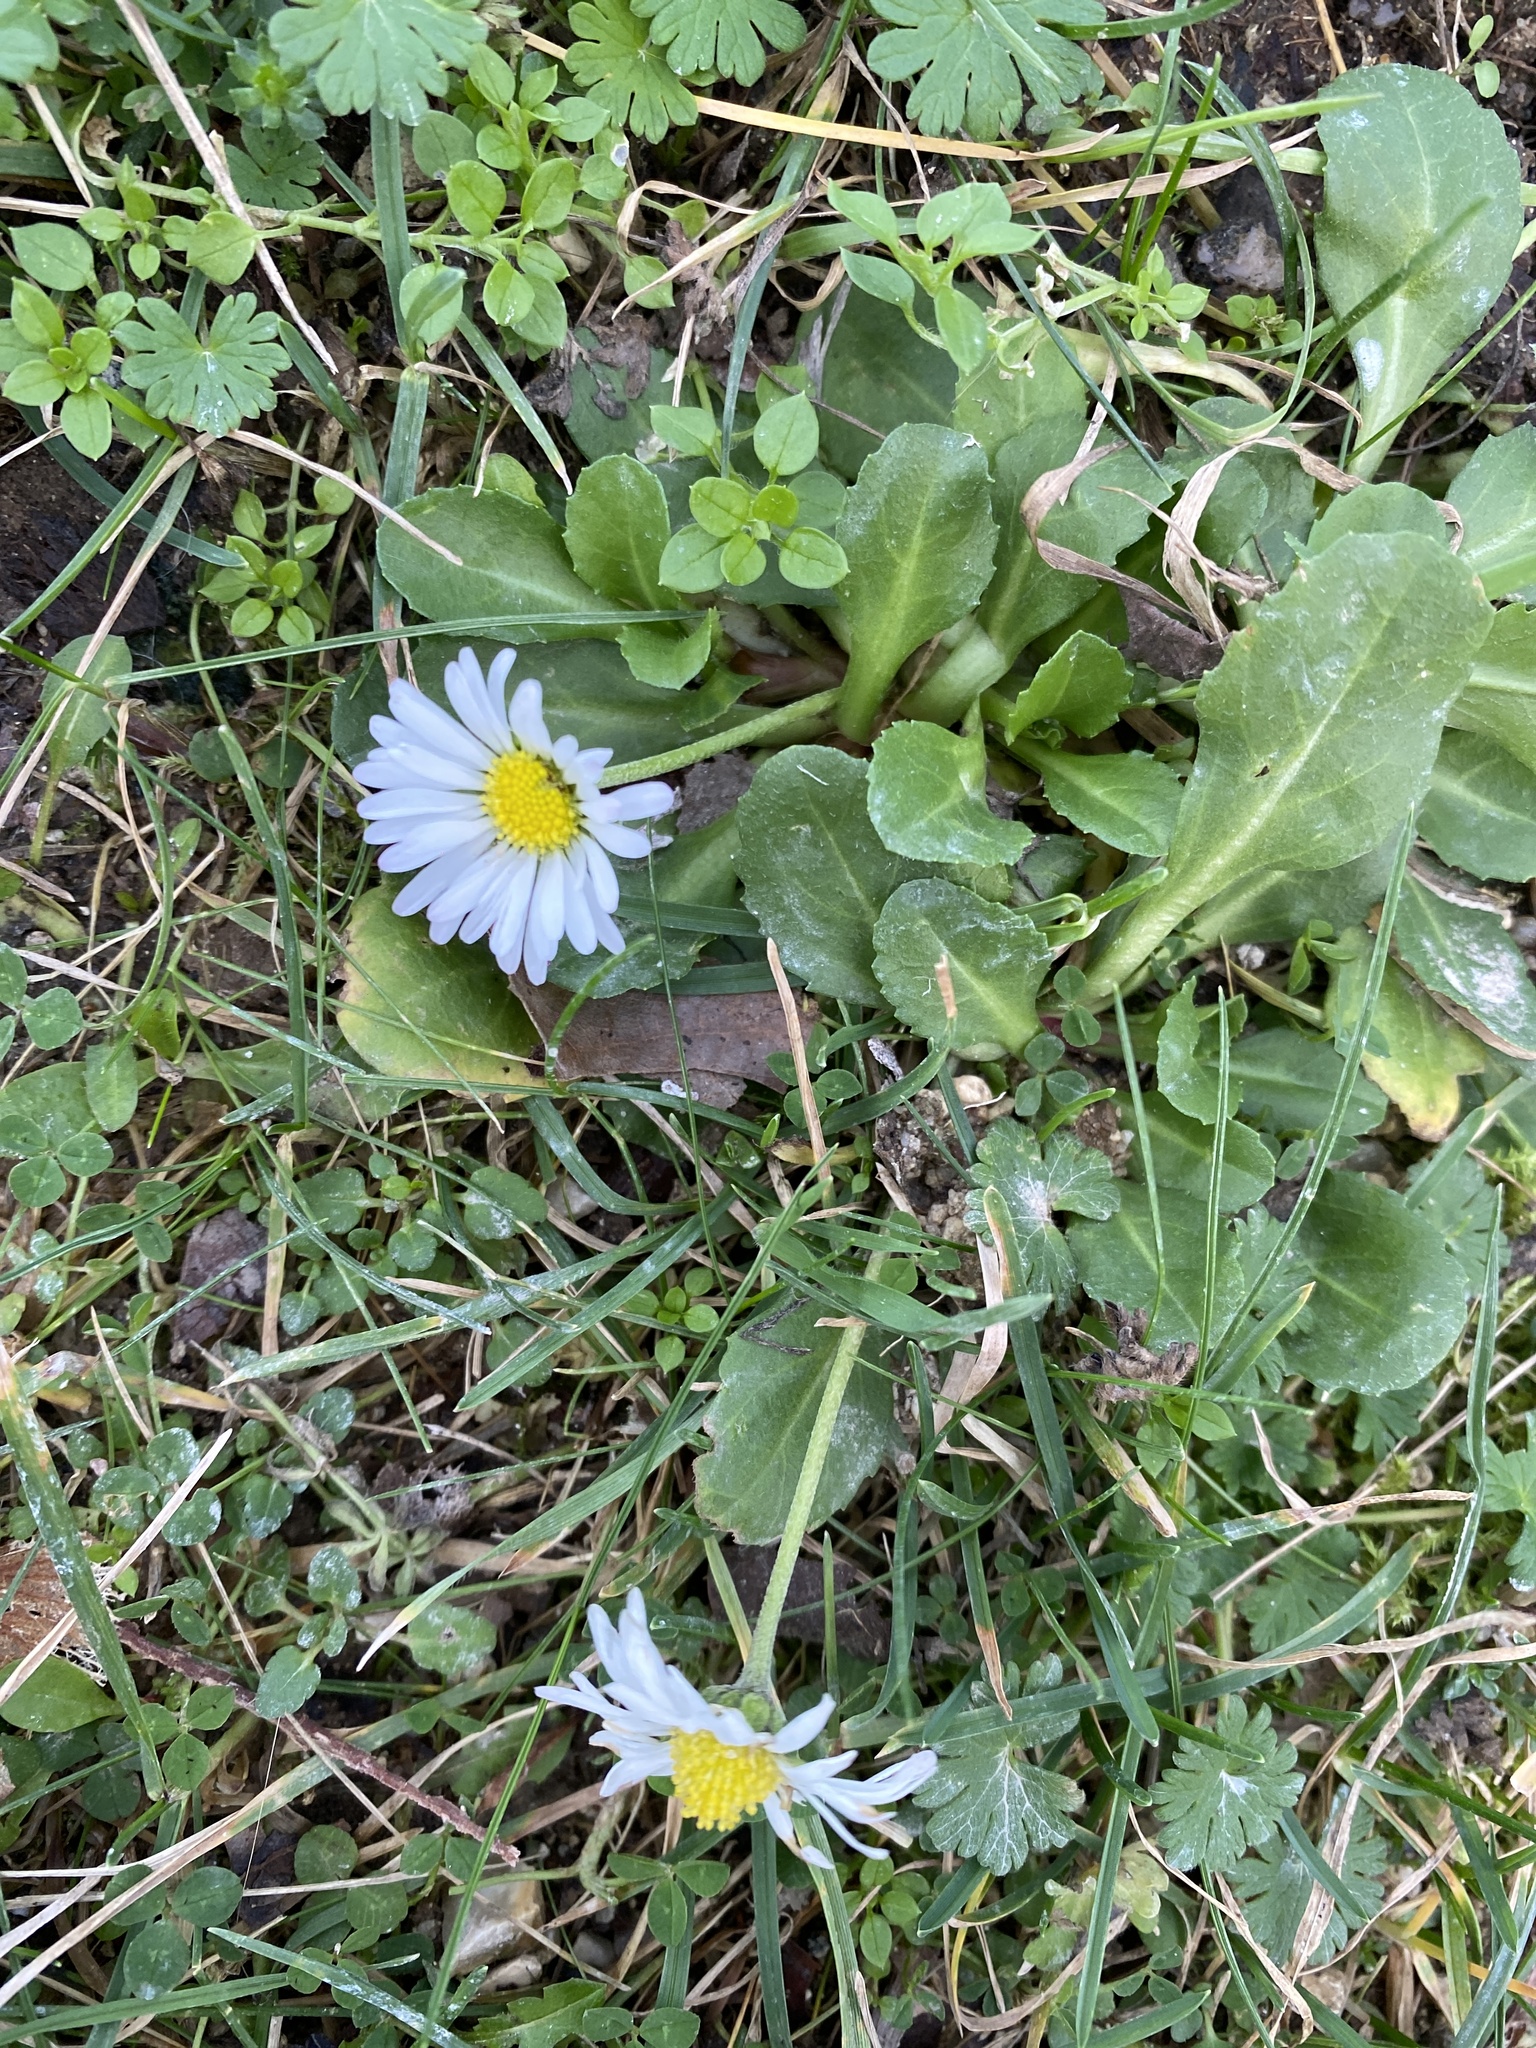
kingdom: Plantae
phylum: Tracheophyta
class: Magnoliopsida
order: Asterales
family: Asteraceae
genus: Bellis
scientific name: Bellis perennis
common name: Lawndaisy
